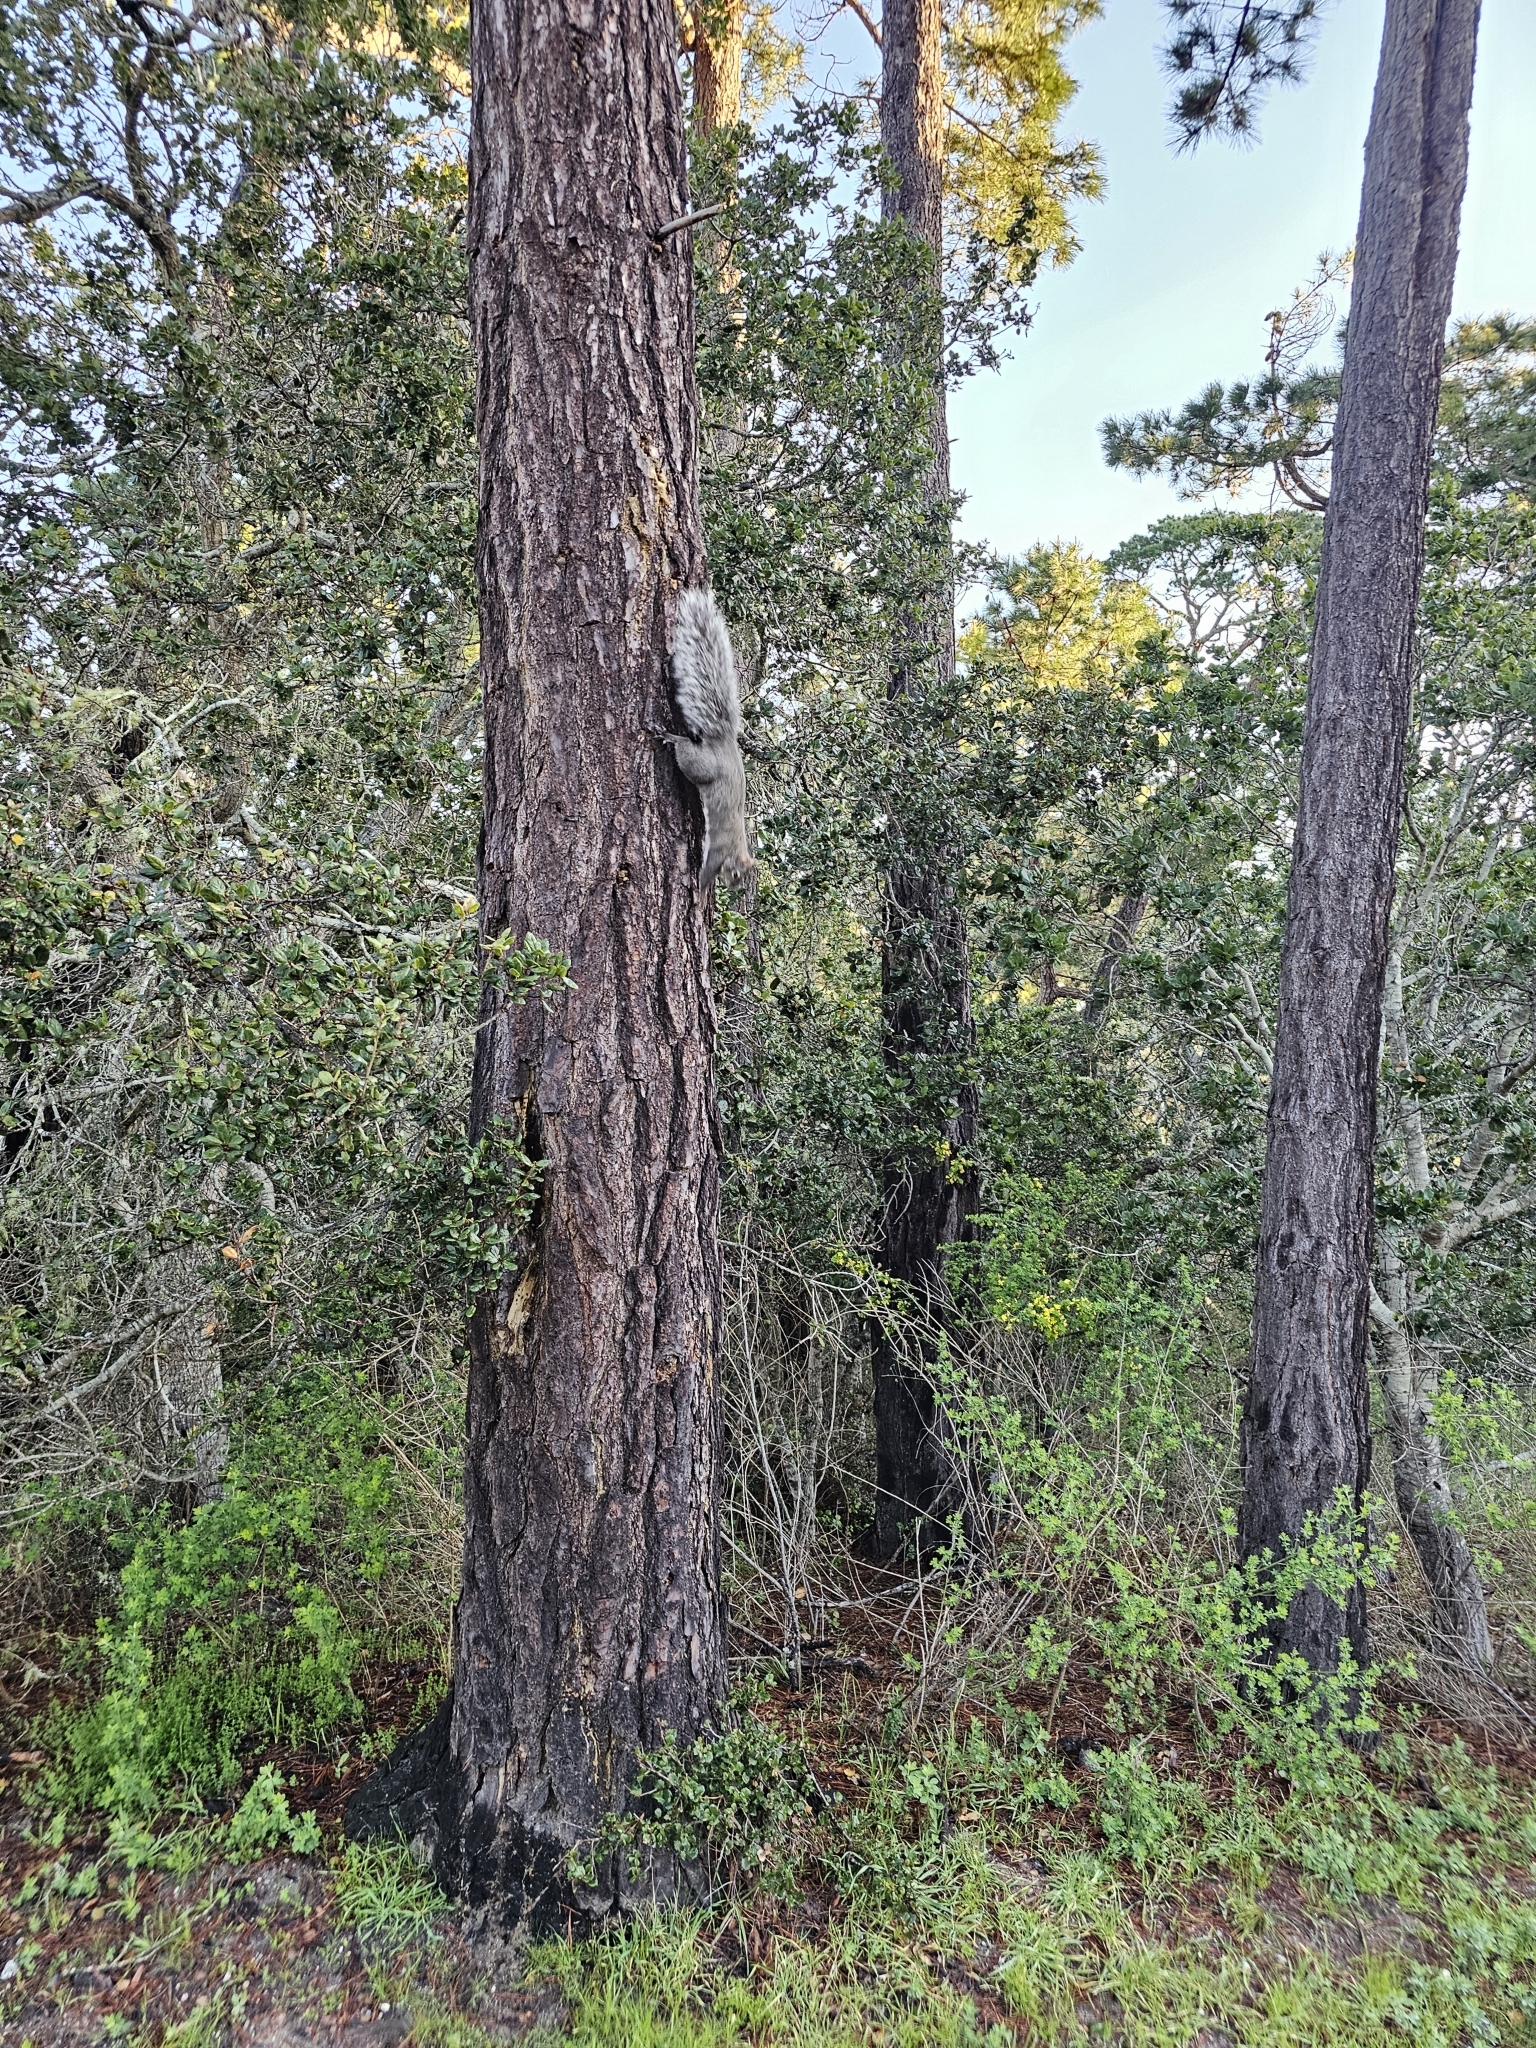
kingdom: Animalia
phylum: Chordata
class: Mammalia
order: Rodentia
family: Sciuridae
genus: Sciurus
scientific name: Sciurus griseus
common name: Western gray squirrel
